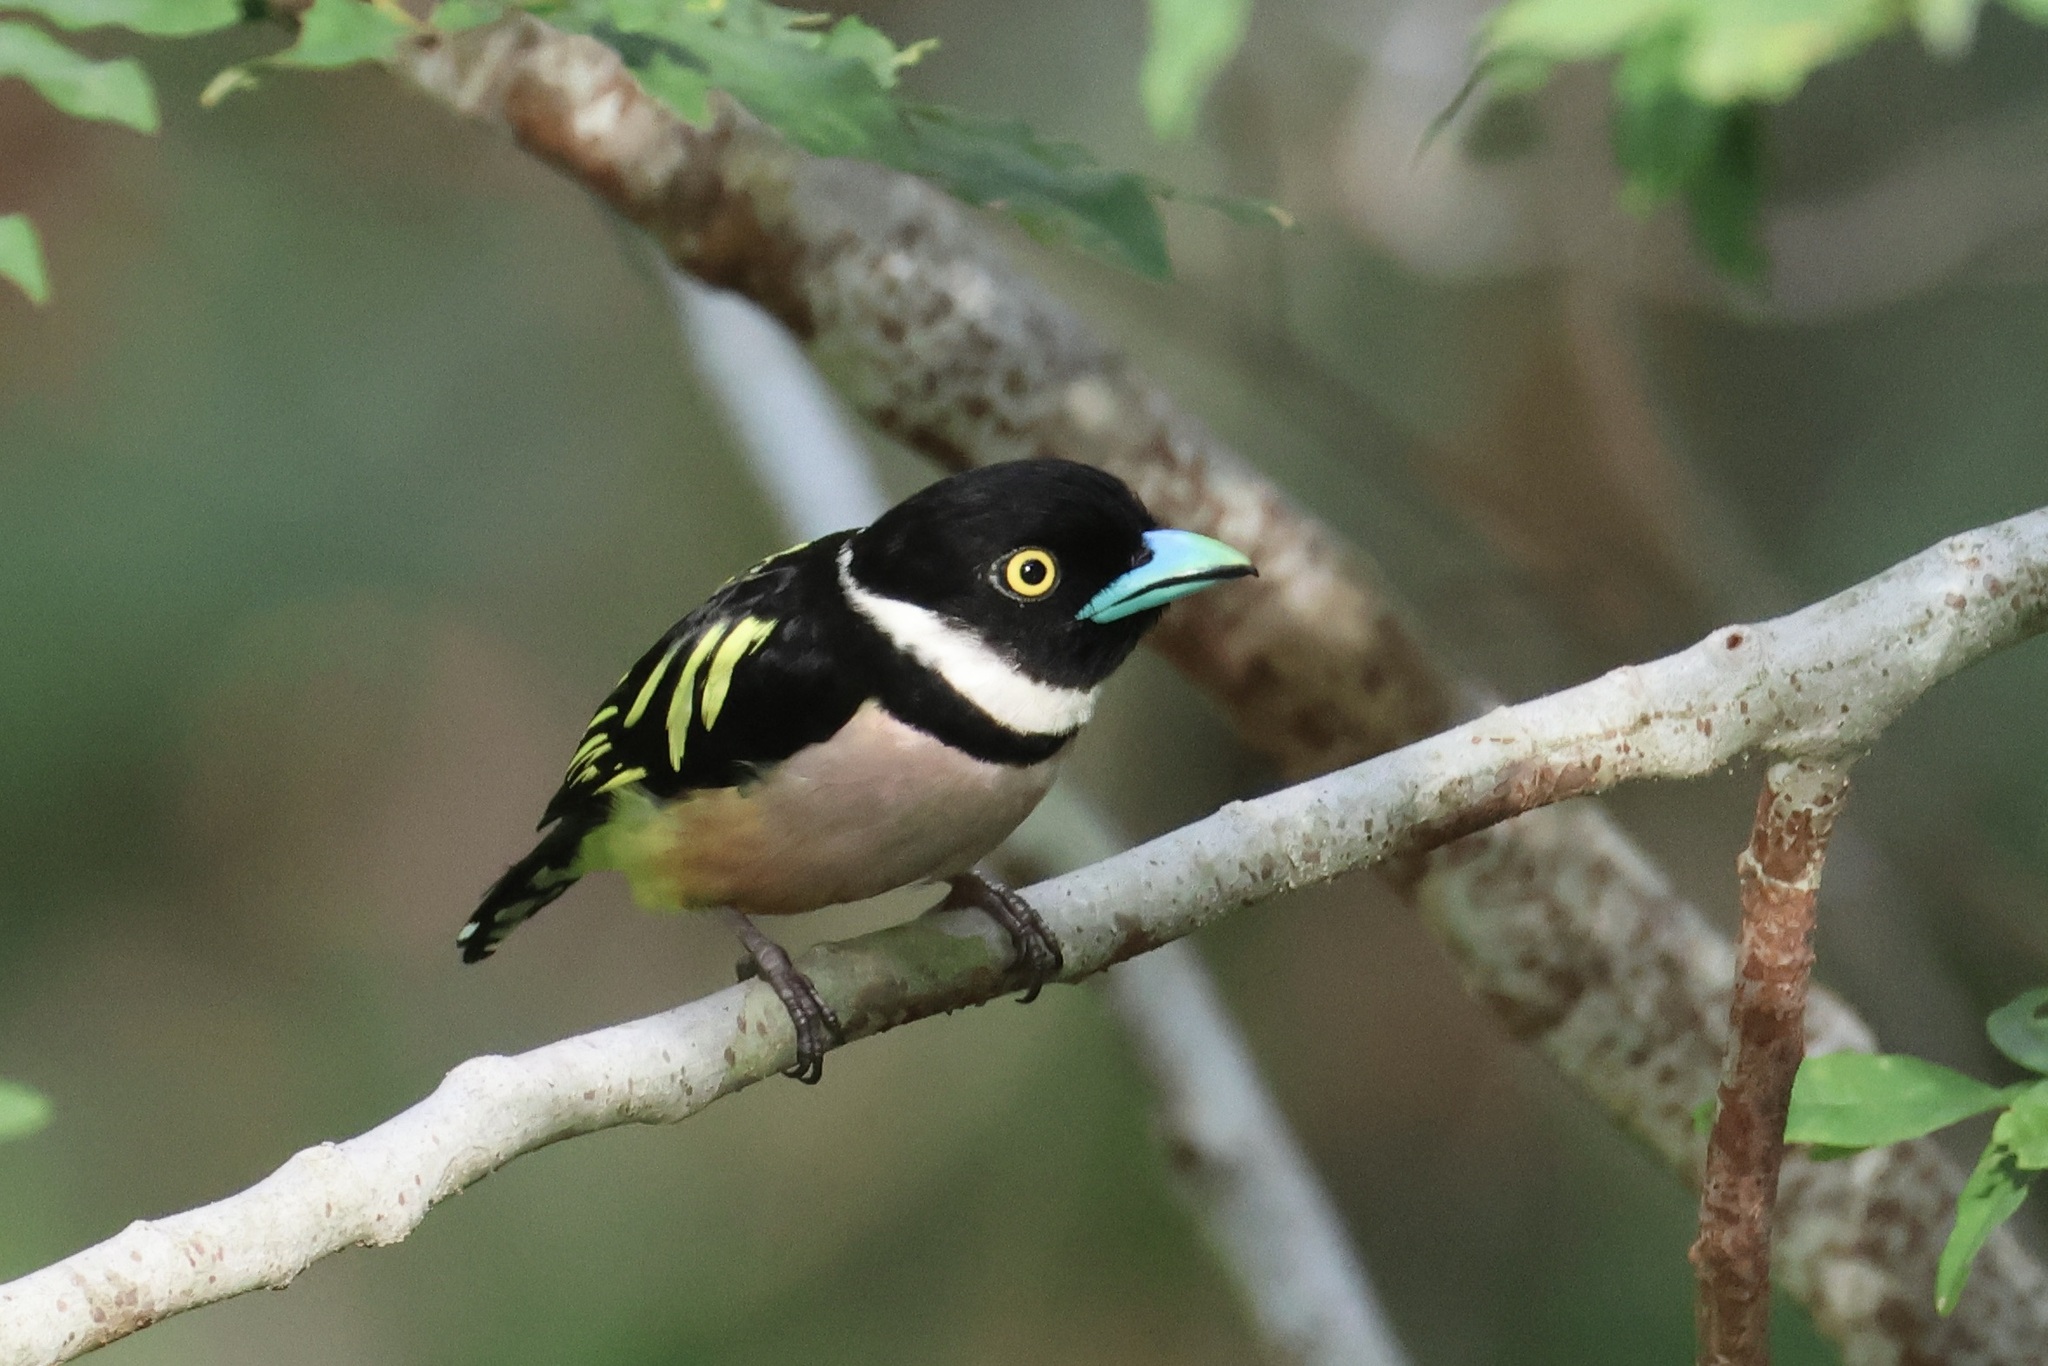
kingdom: Animalia
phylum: Chordata
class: Aves
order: Passeriformes
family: Eurylaimidae
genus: Eurylaimus
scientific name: Eurylaimus ochromalus
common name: Black-and-yellow broadbill
